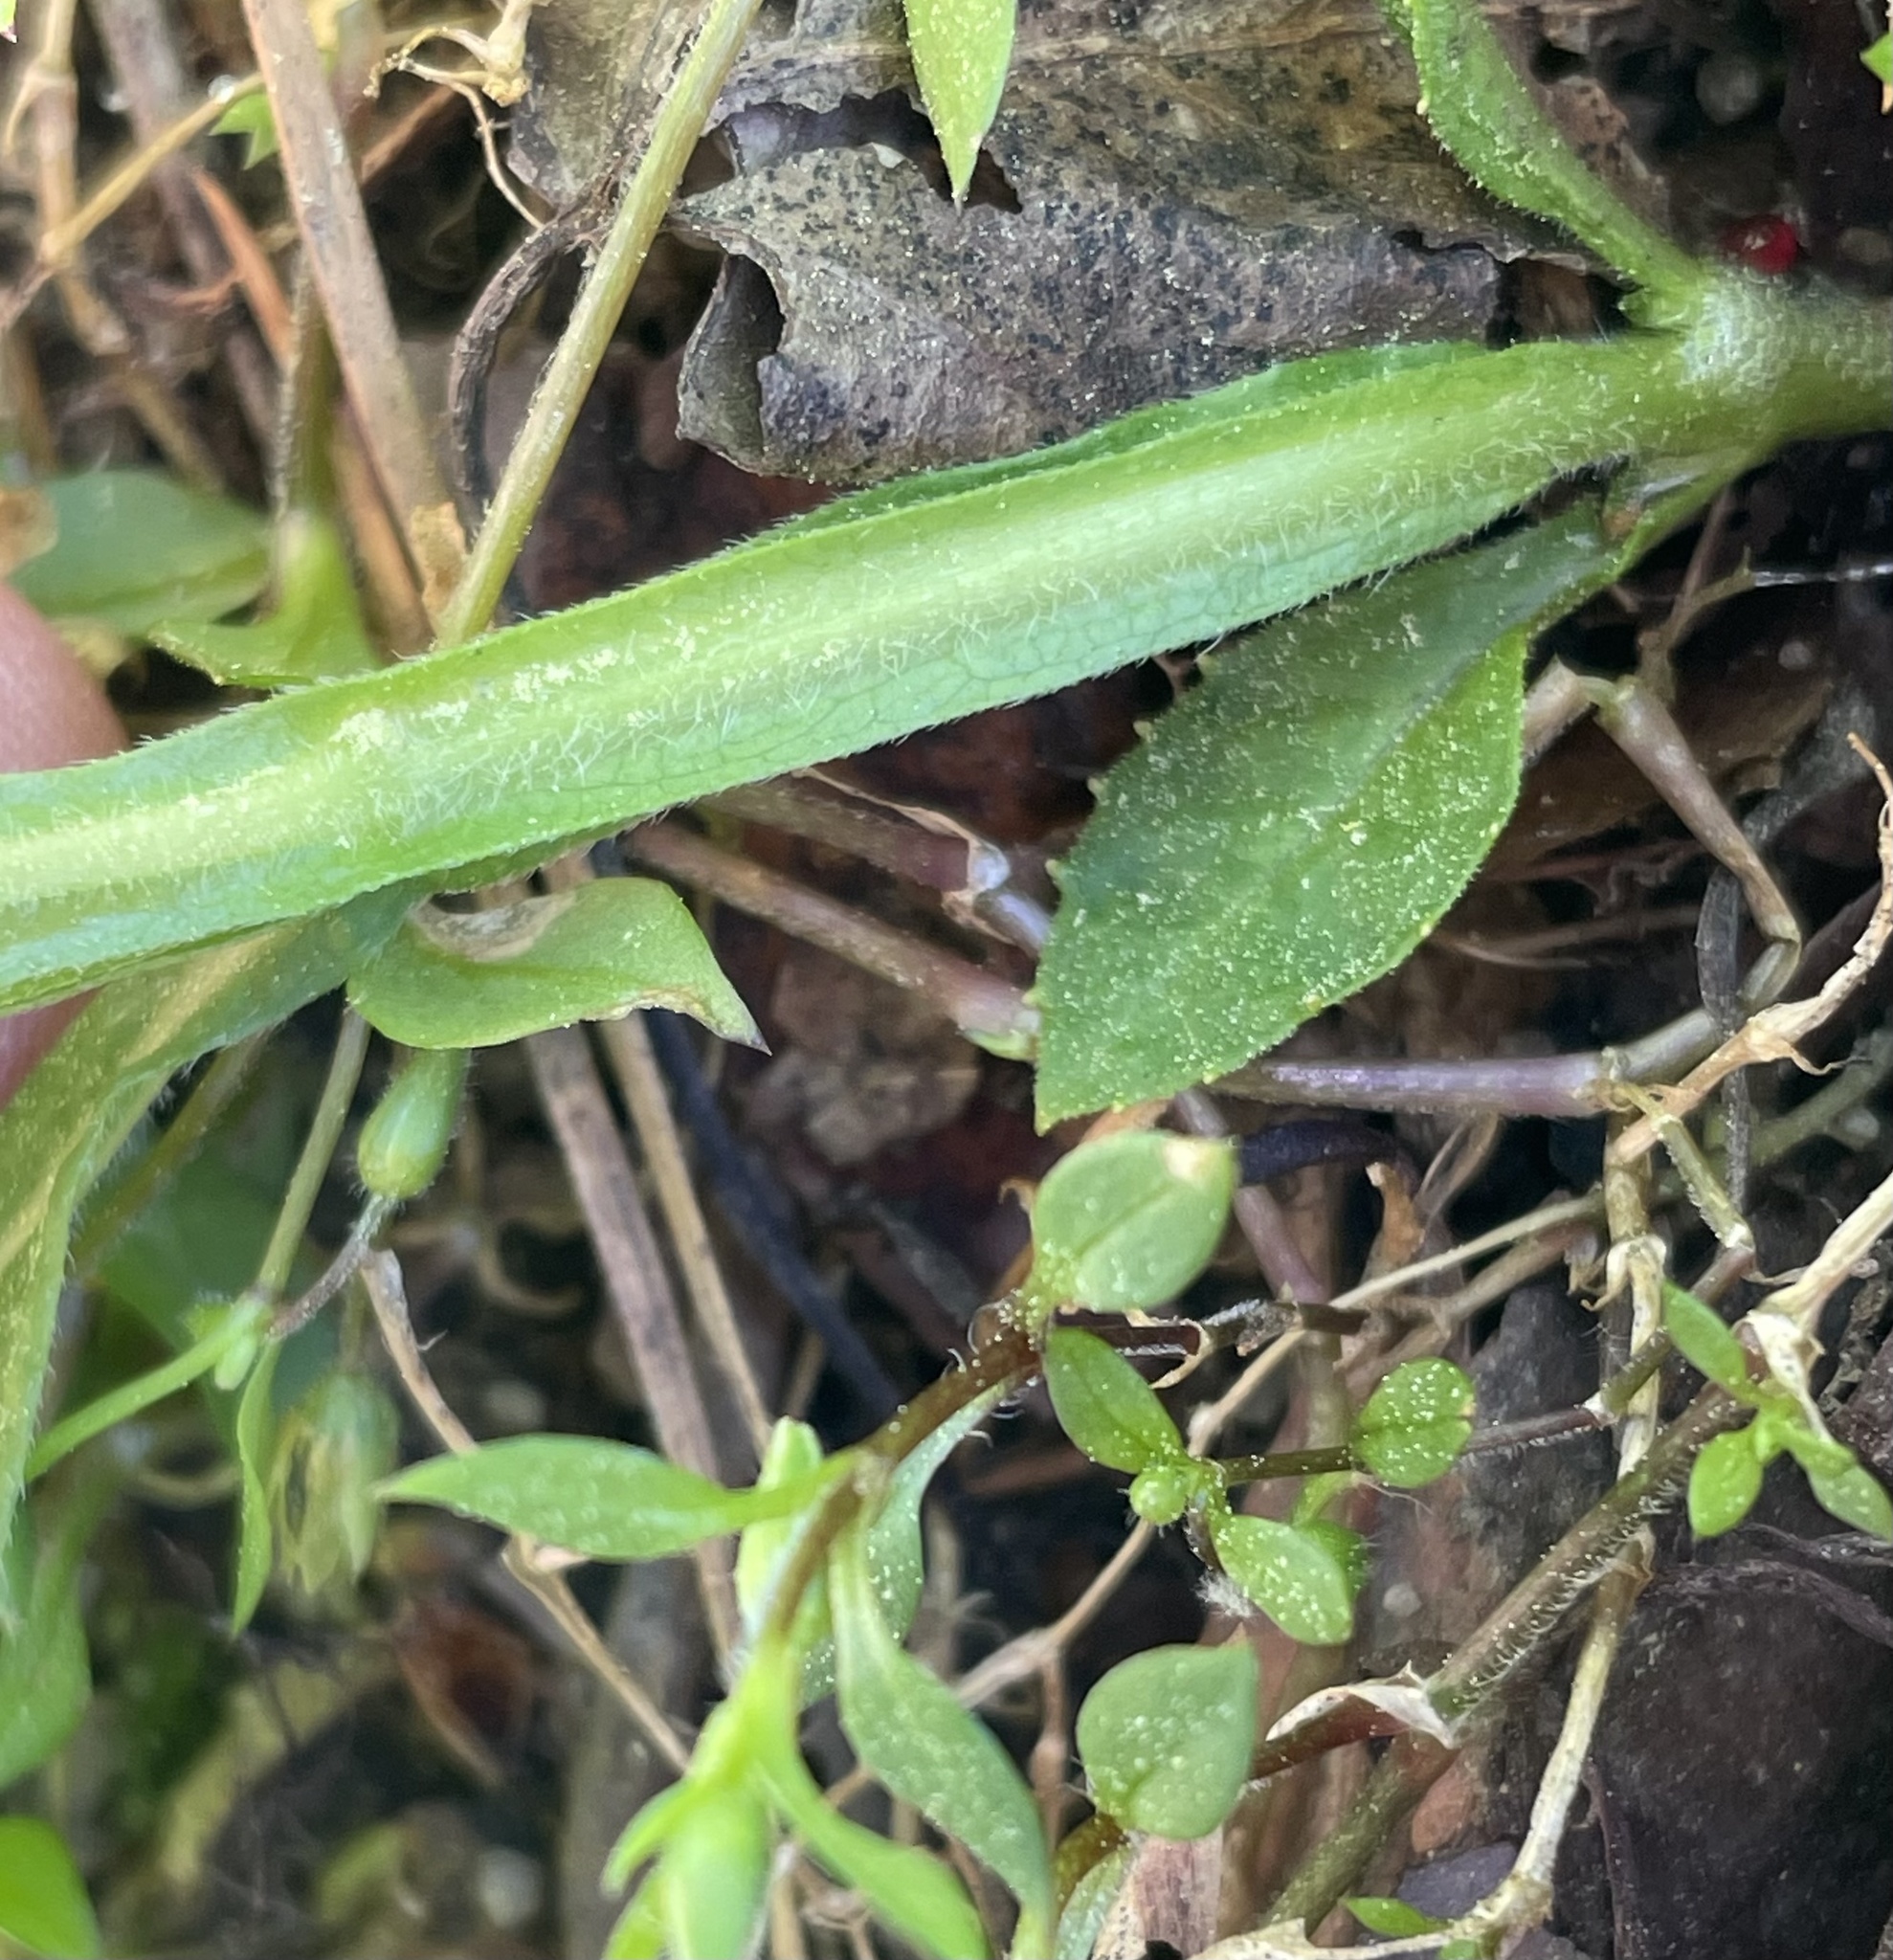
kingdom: Plantae
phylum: Tracheophyta
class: Magnoliopsida
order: Asterales
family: Asteraceae
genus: Verbesina
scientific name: Verbesina occidentalis
